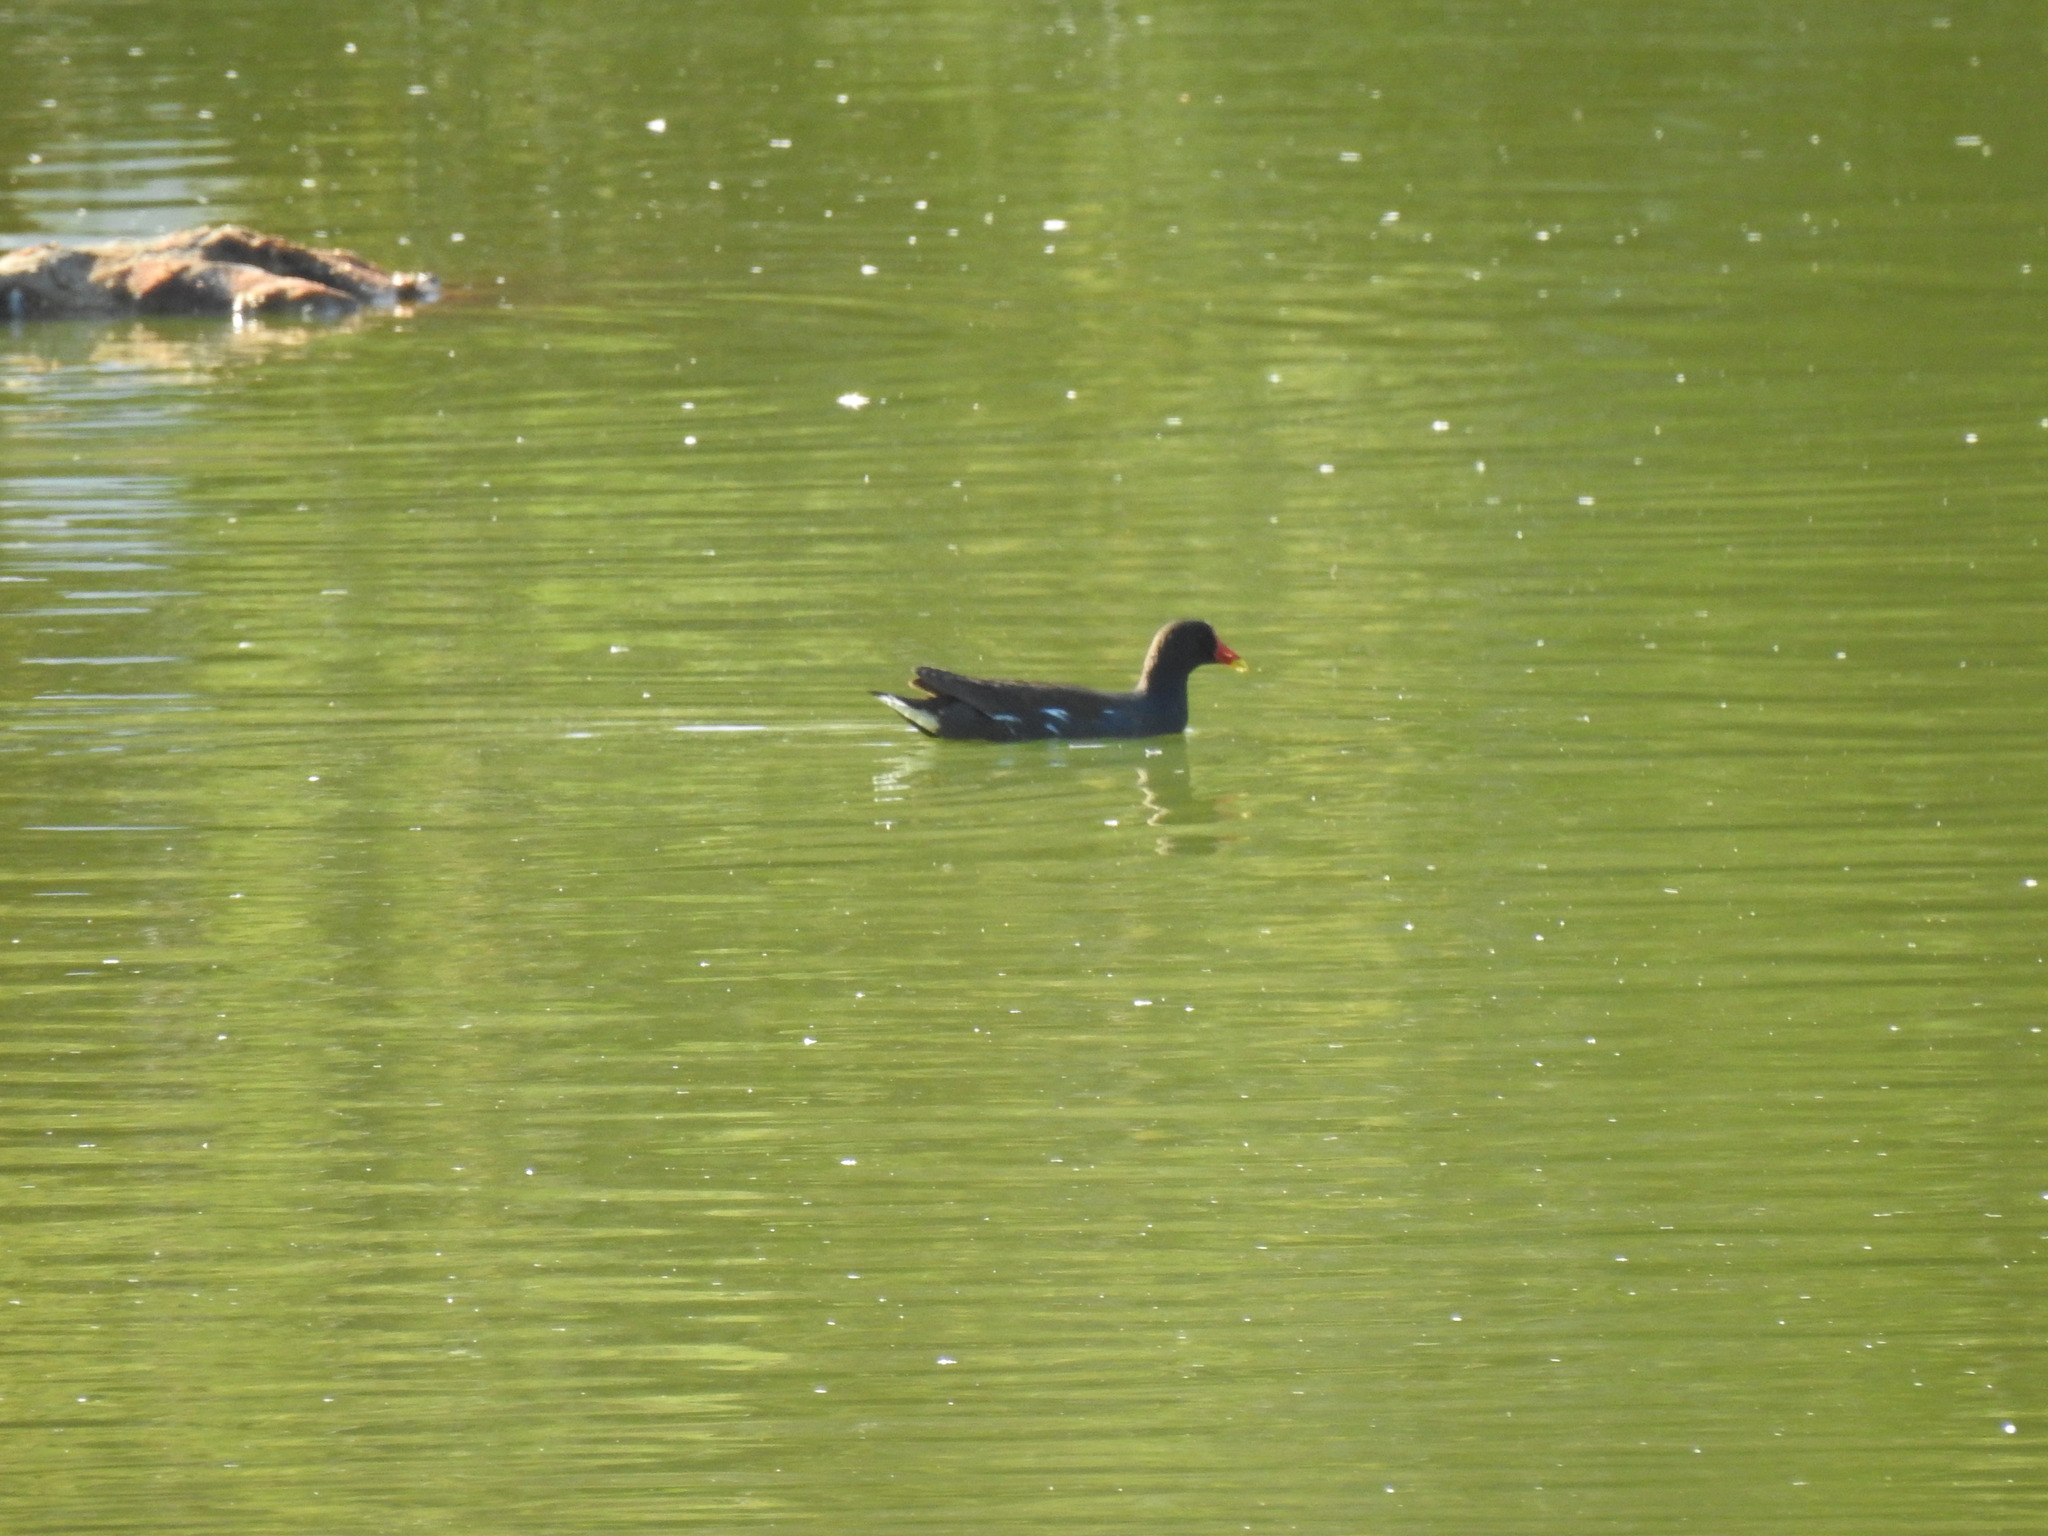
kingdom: Animalia
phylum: Chordata
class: Aves
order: Gruiformes
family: Rallidae
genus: Gallinula
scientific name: Gallinula chloropus
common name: Common moorhen
